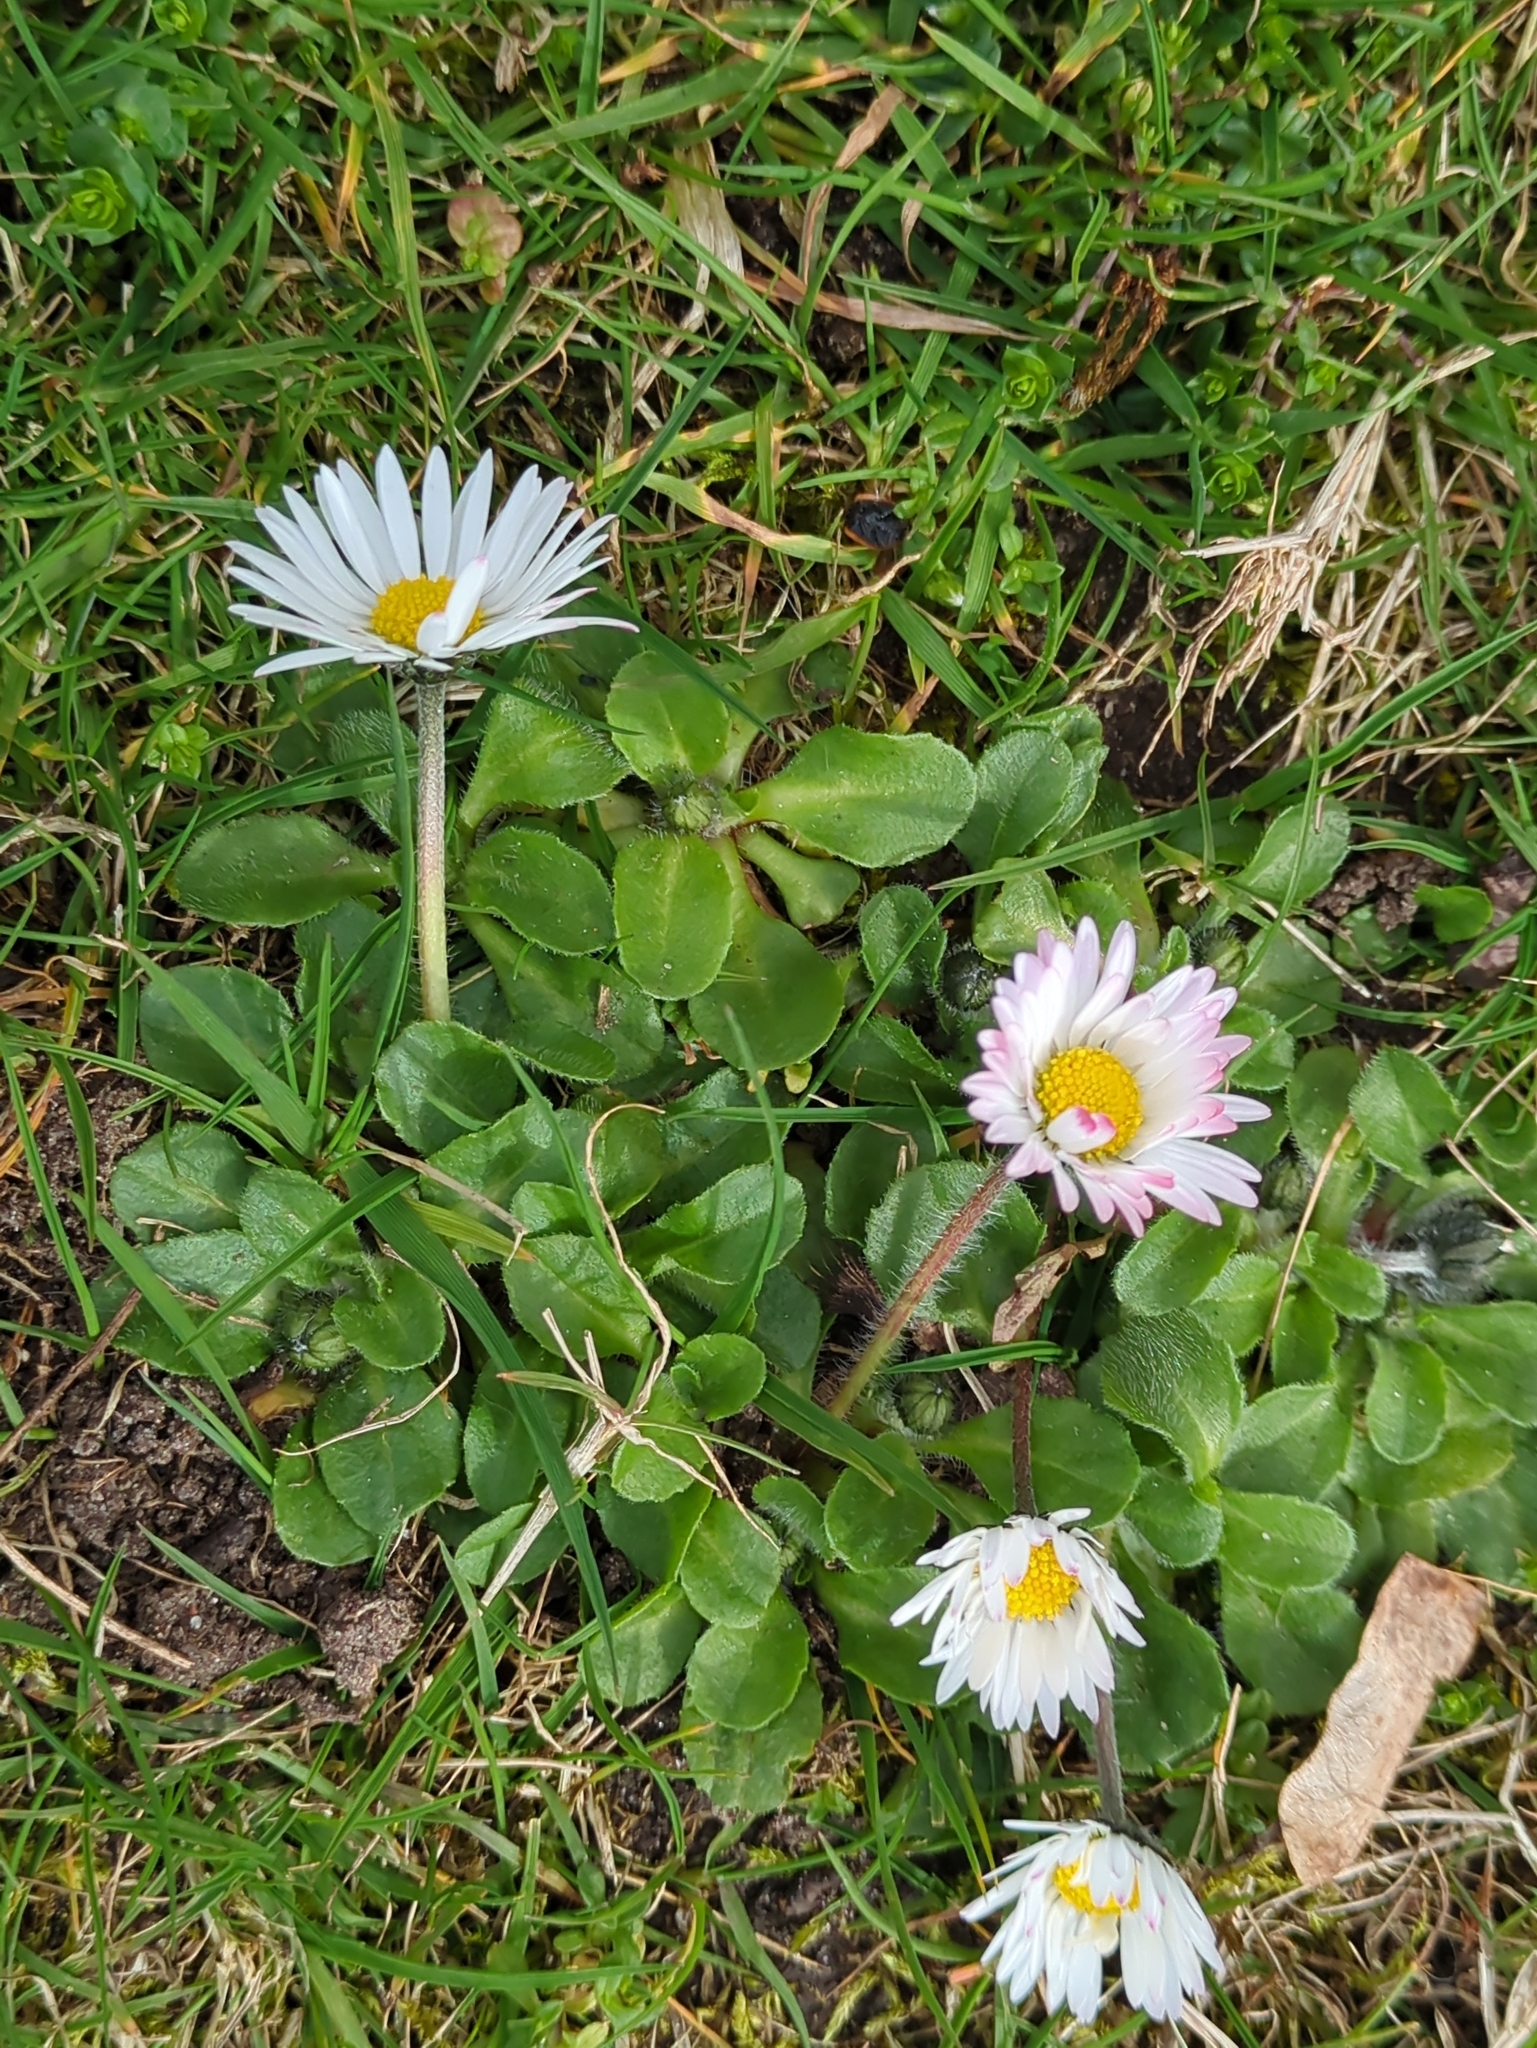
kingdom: Plantae
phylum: Tracheophyta
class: Magnoliopsida
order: Asterales
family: Asteraceae
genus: Bellis
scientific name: Bellis perennis
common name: Lawndaisy
